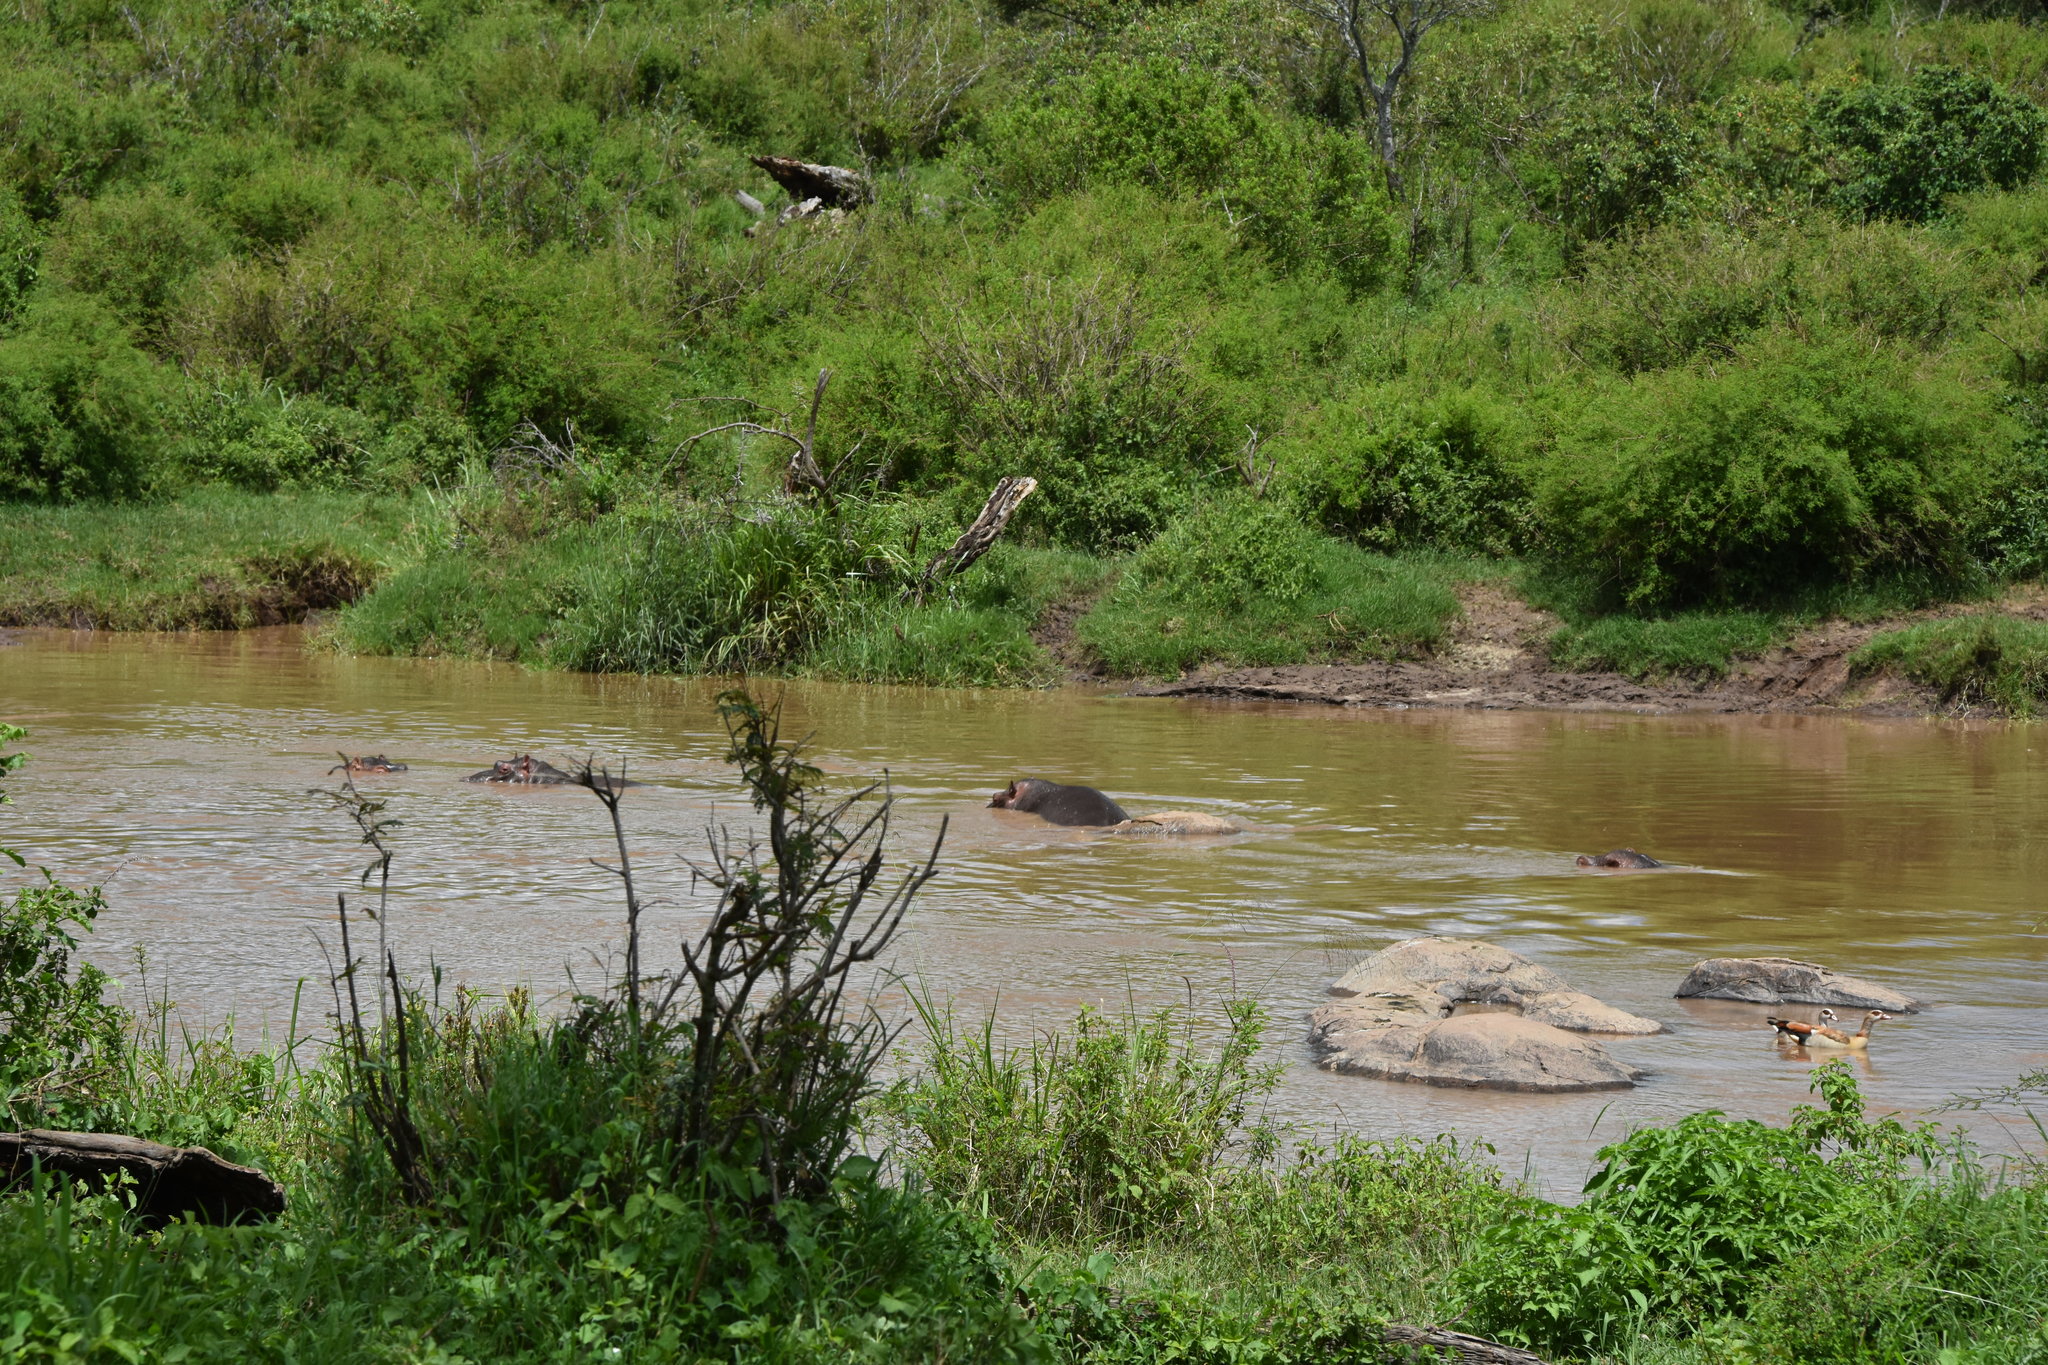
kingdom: Animalia
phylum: Chordata
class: Aves
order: Anseriformes
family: Anatidae
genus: Alopochen
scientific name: Alopochen aegyptiaca
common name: Egyptian goose
